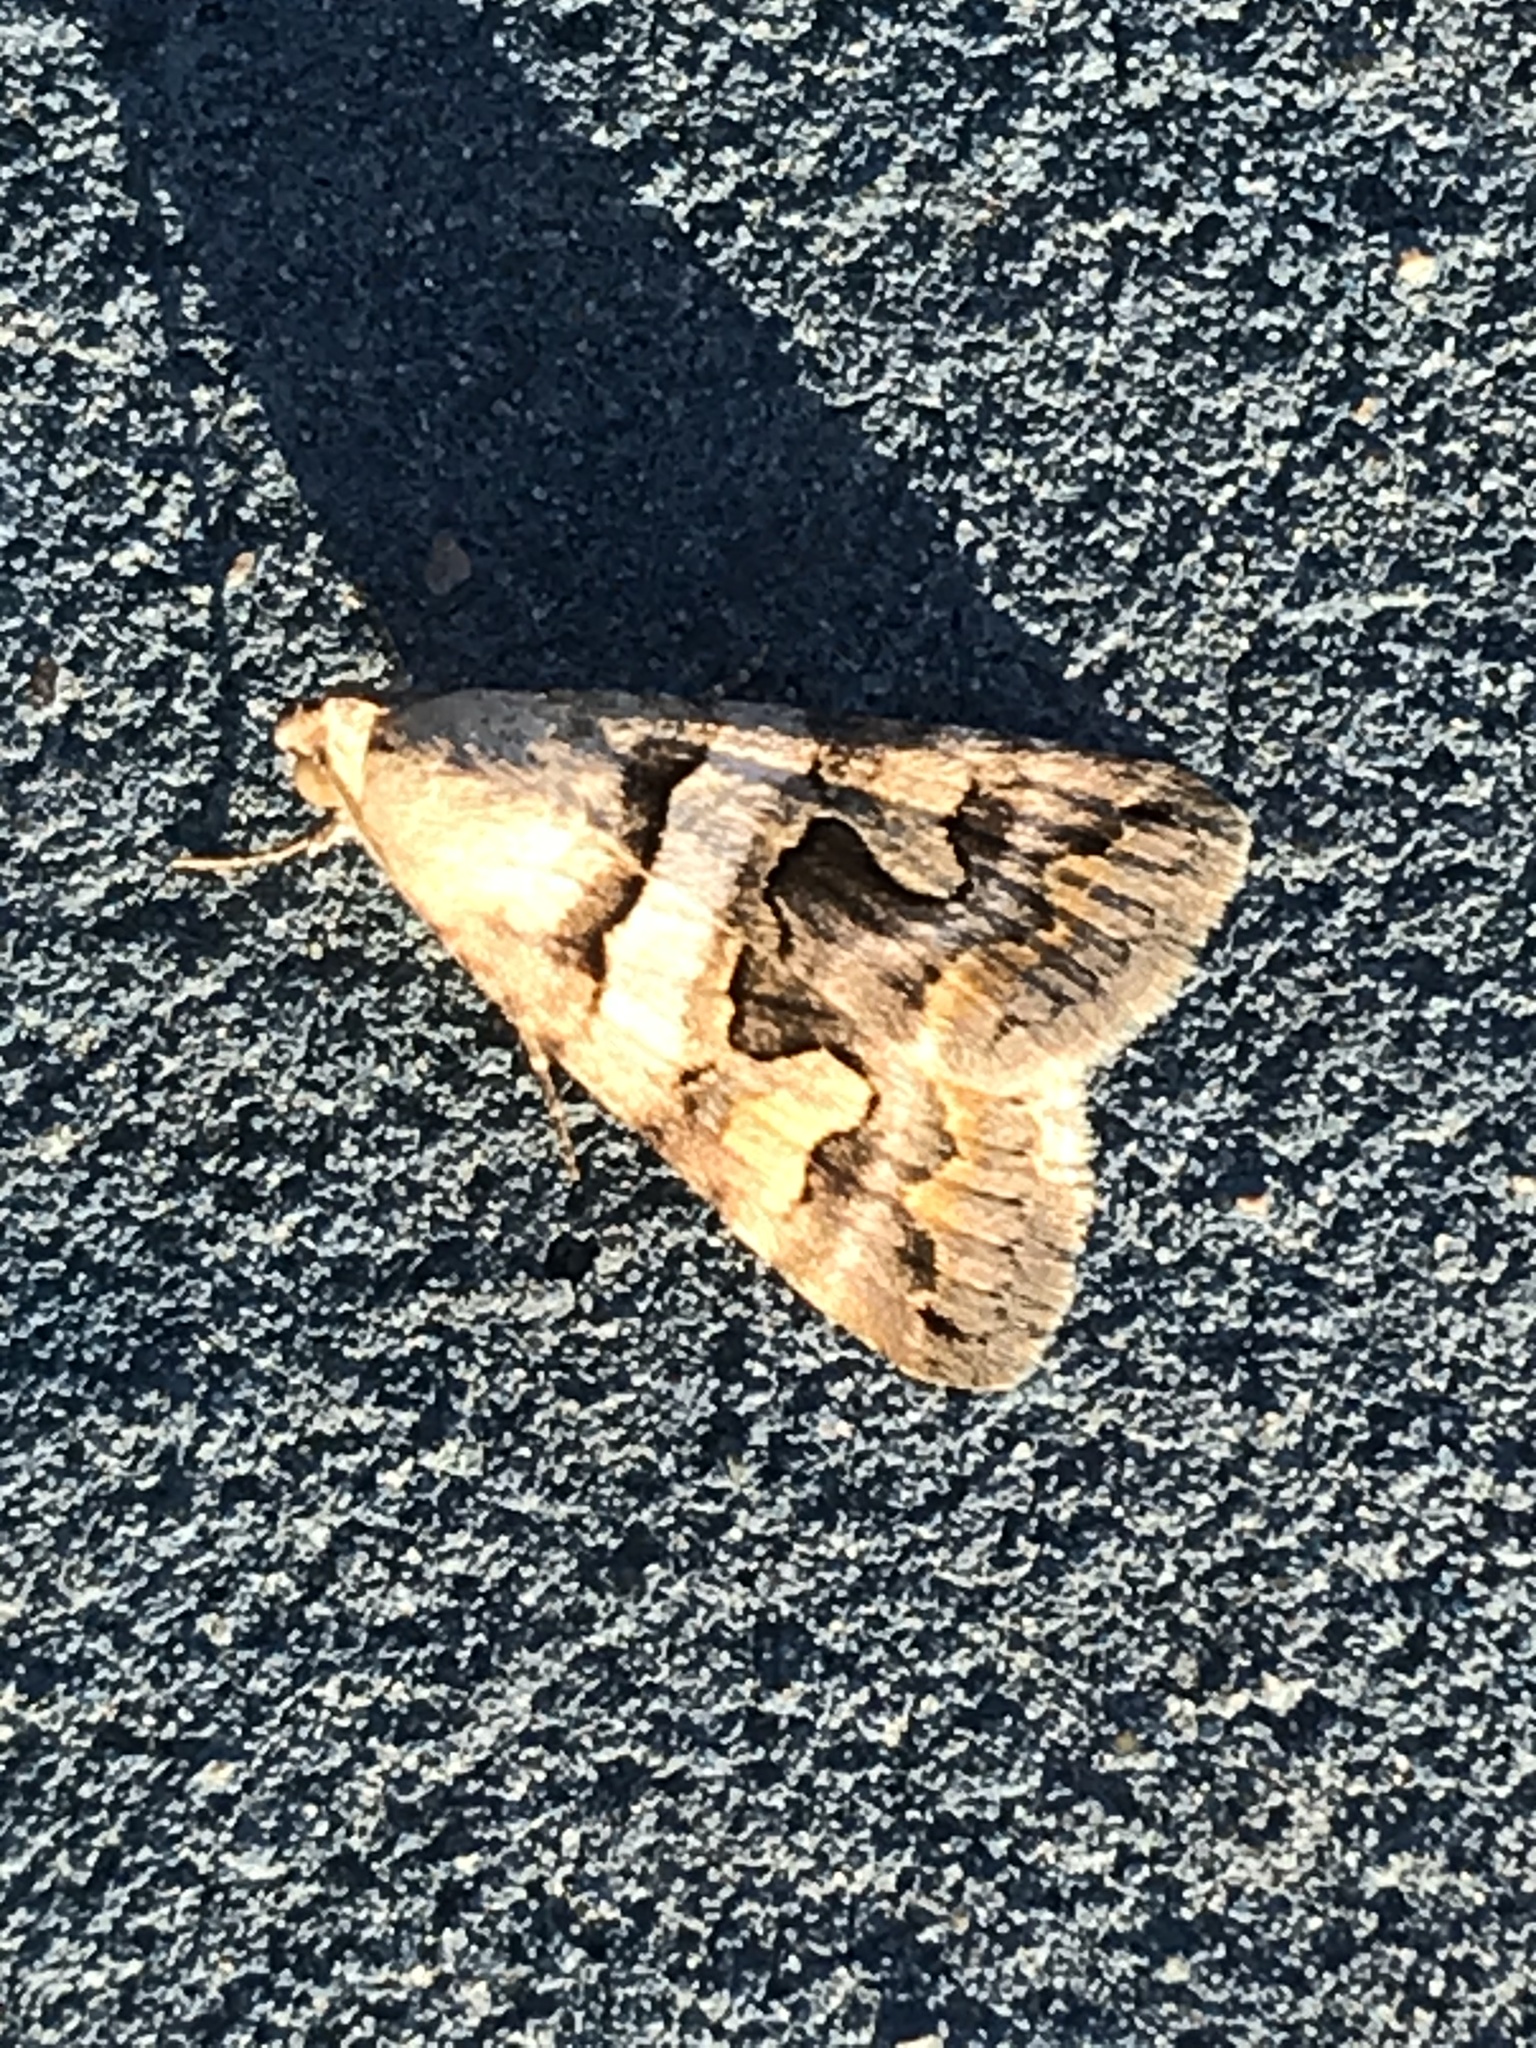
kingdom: Animalia
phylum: Arthropoda
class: Insecta
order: Lepidoptera
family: Erebidae
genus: Bulia
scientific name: Bulia deducta
